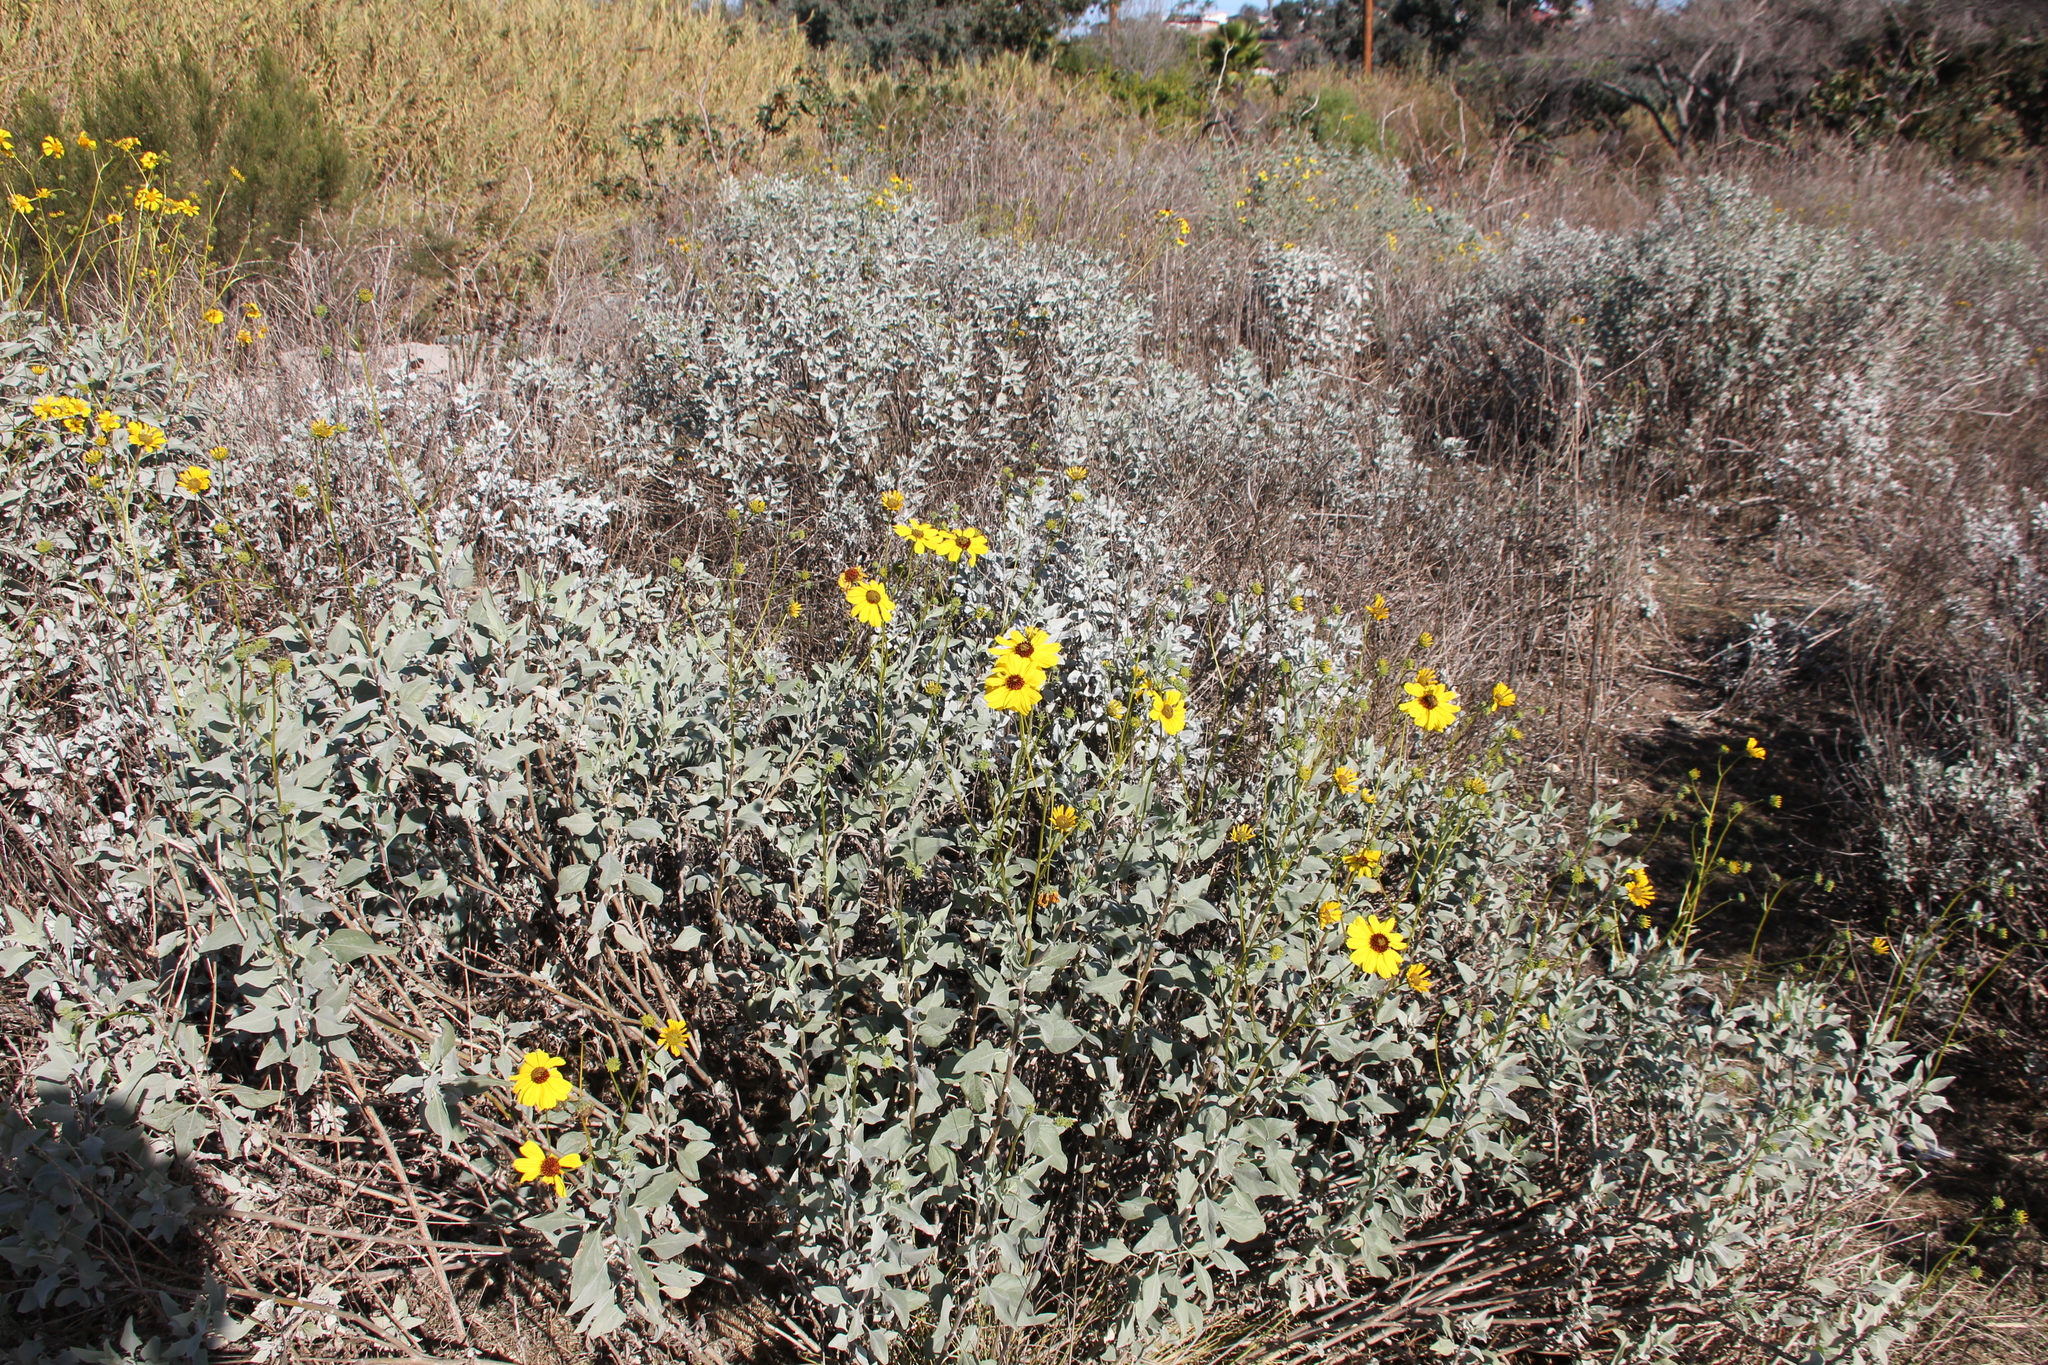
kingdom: Plantae
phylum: Tracheophyta
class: Magnoliopsida
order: Asterales
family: Asteraceae
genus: Encelia
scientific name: Encelia farinosa
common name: Brittlebush
